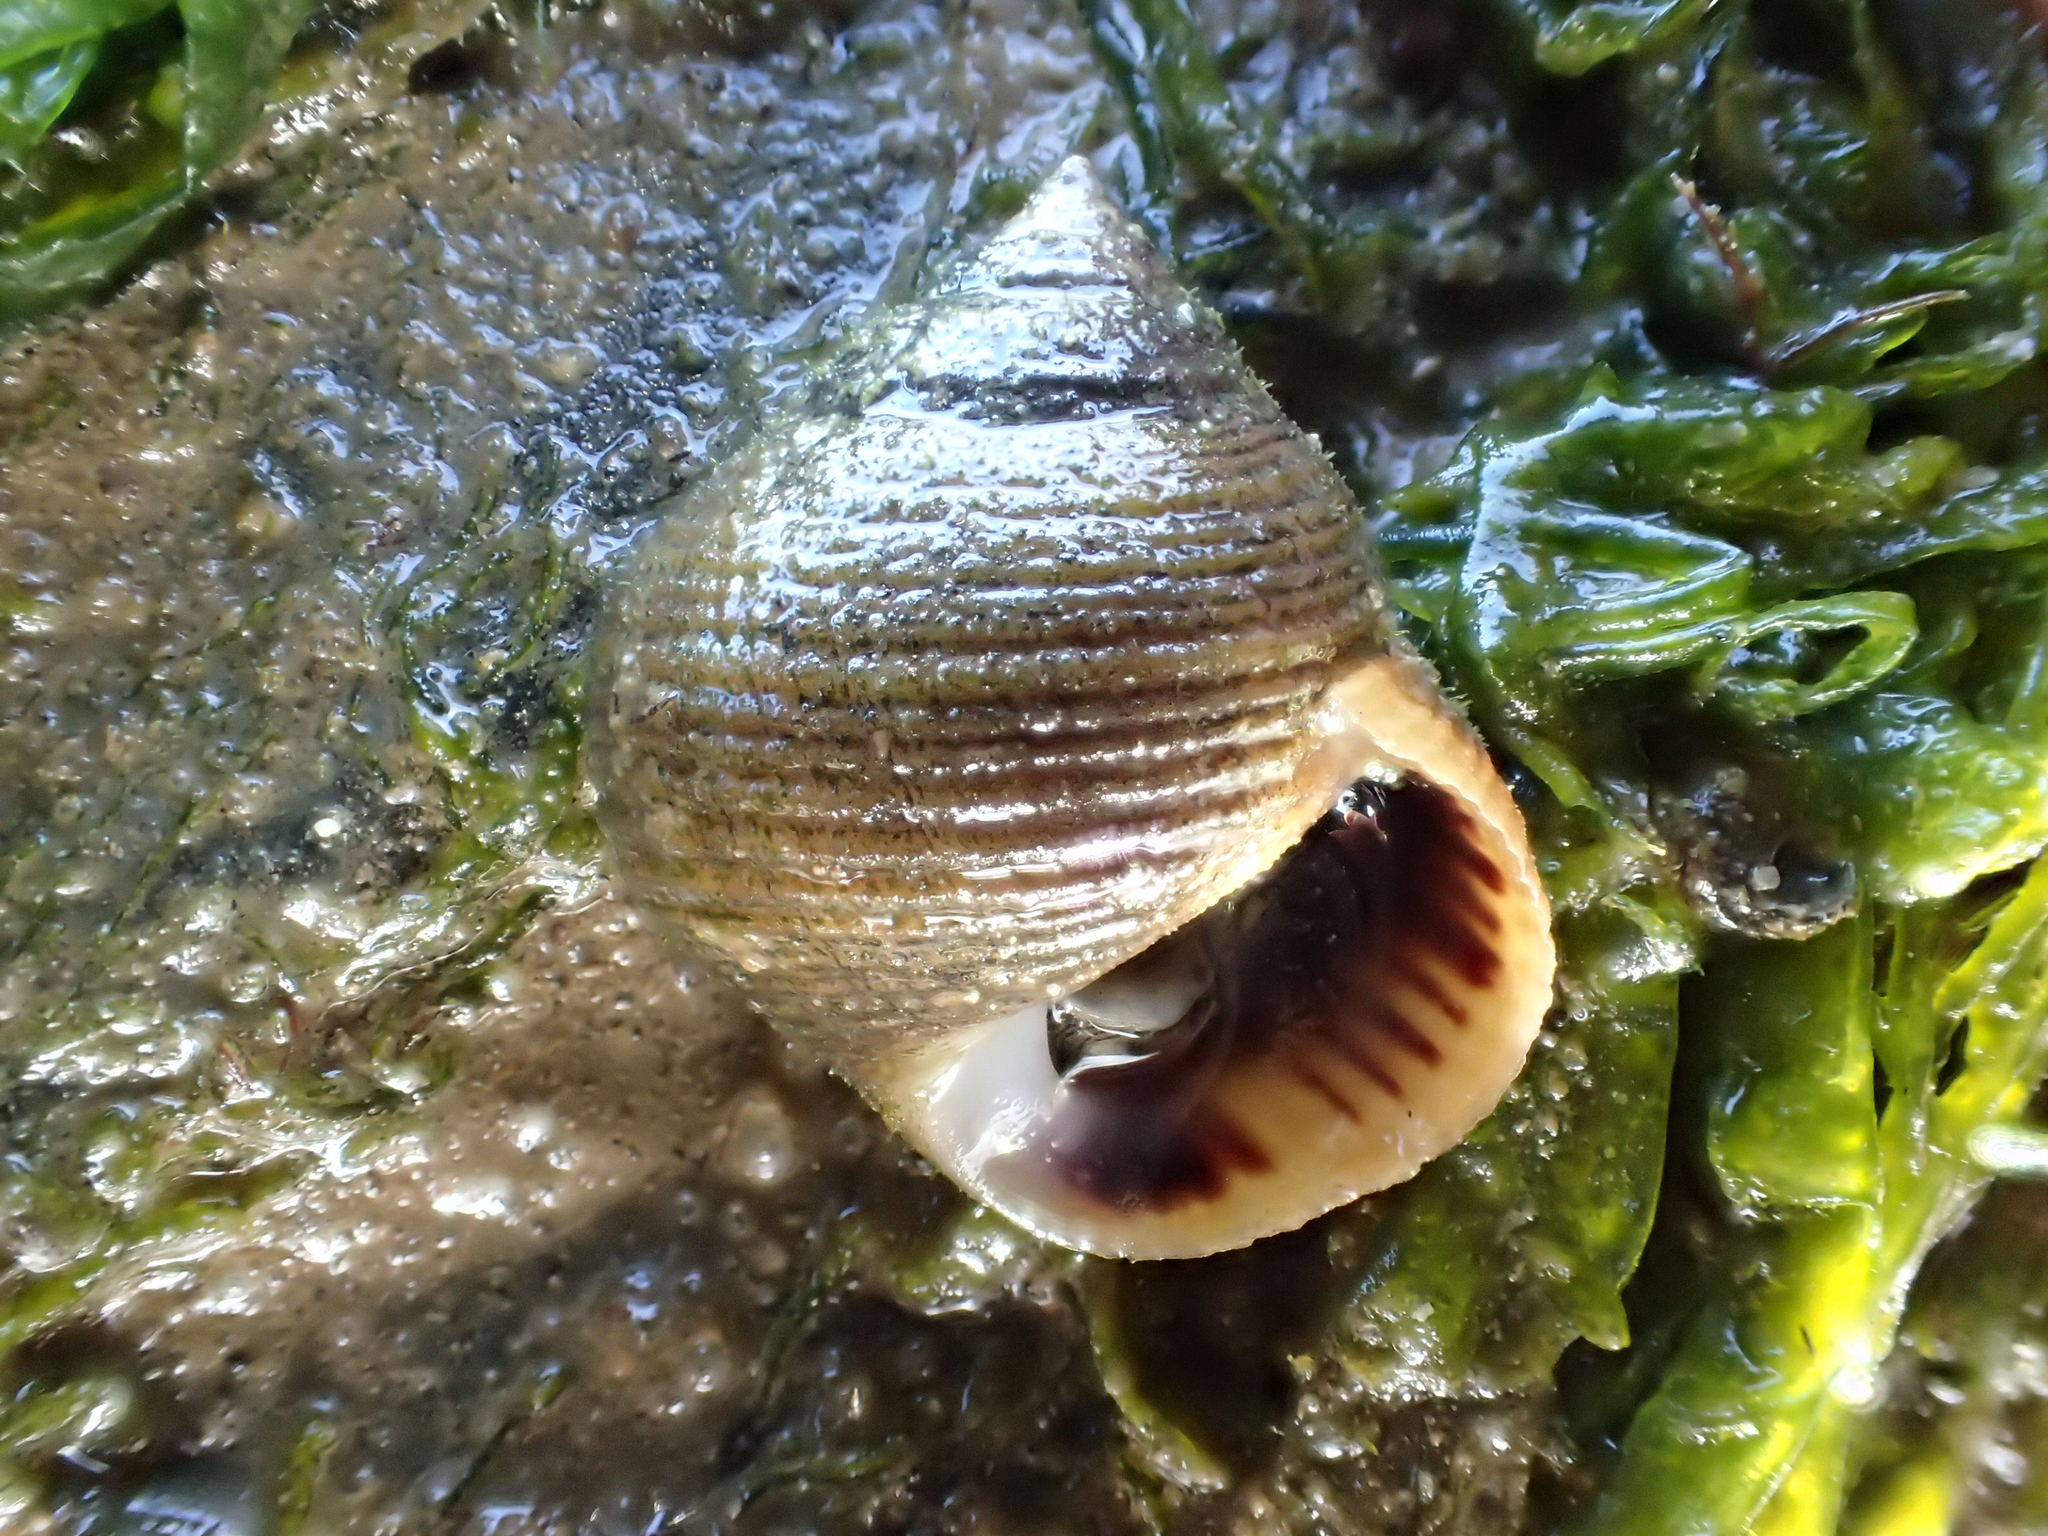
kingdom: Animalia
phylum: Mollusca
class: Gastropoda
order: Littorinimorpha
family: Littorinidae
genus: Littorina
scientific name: Littorina littorea
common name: Common periwinkle
